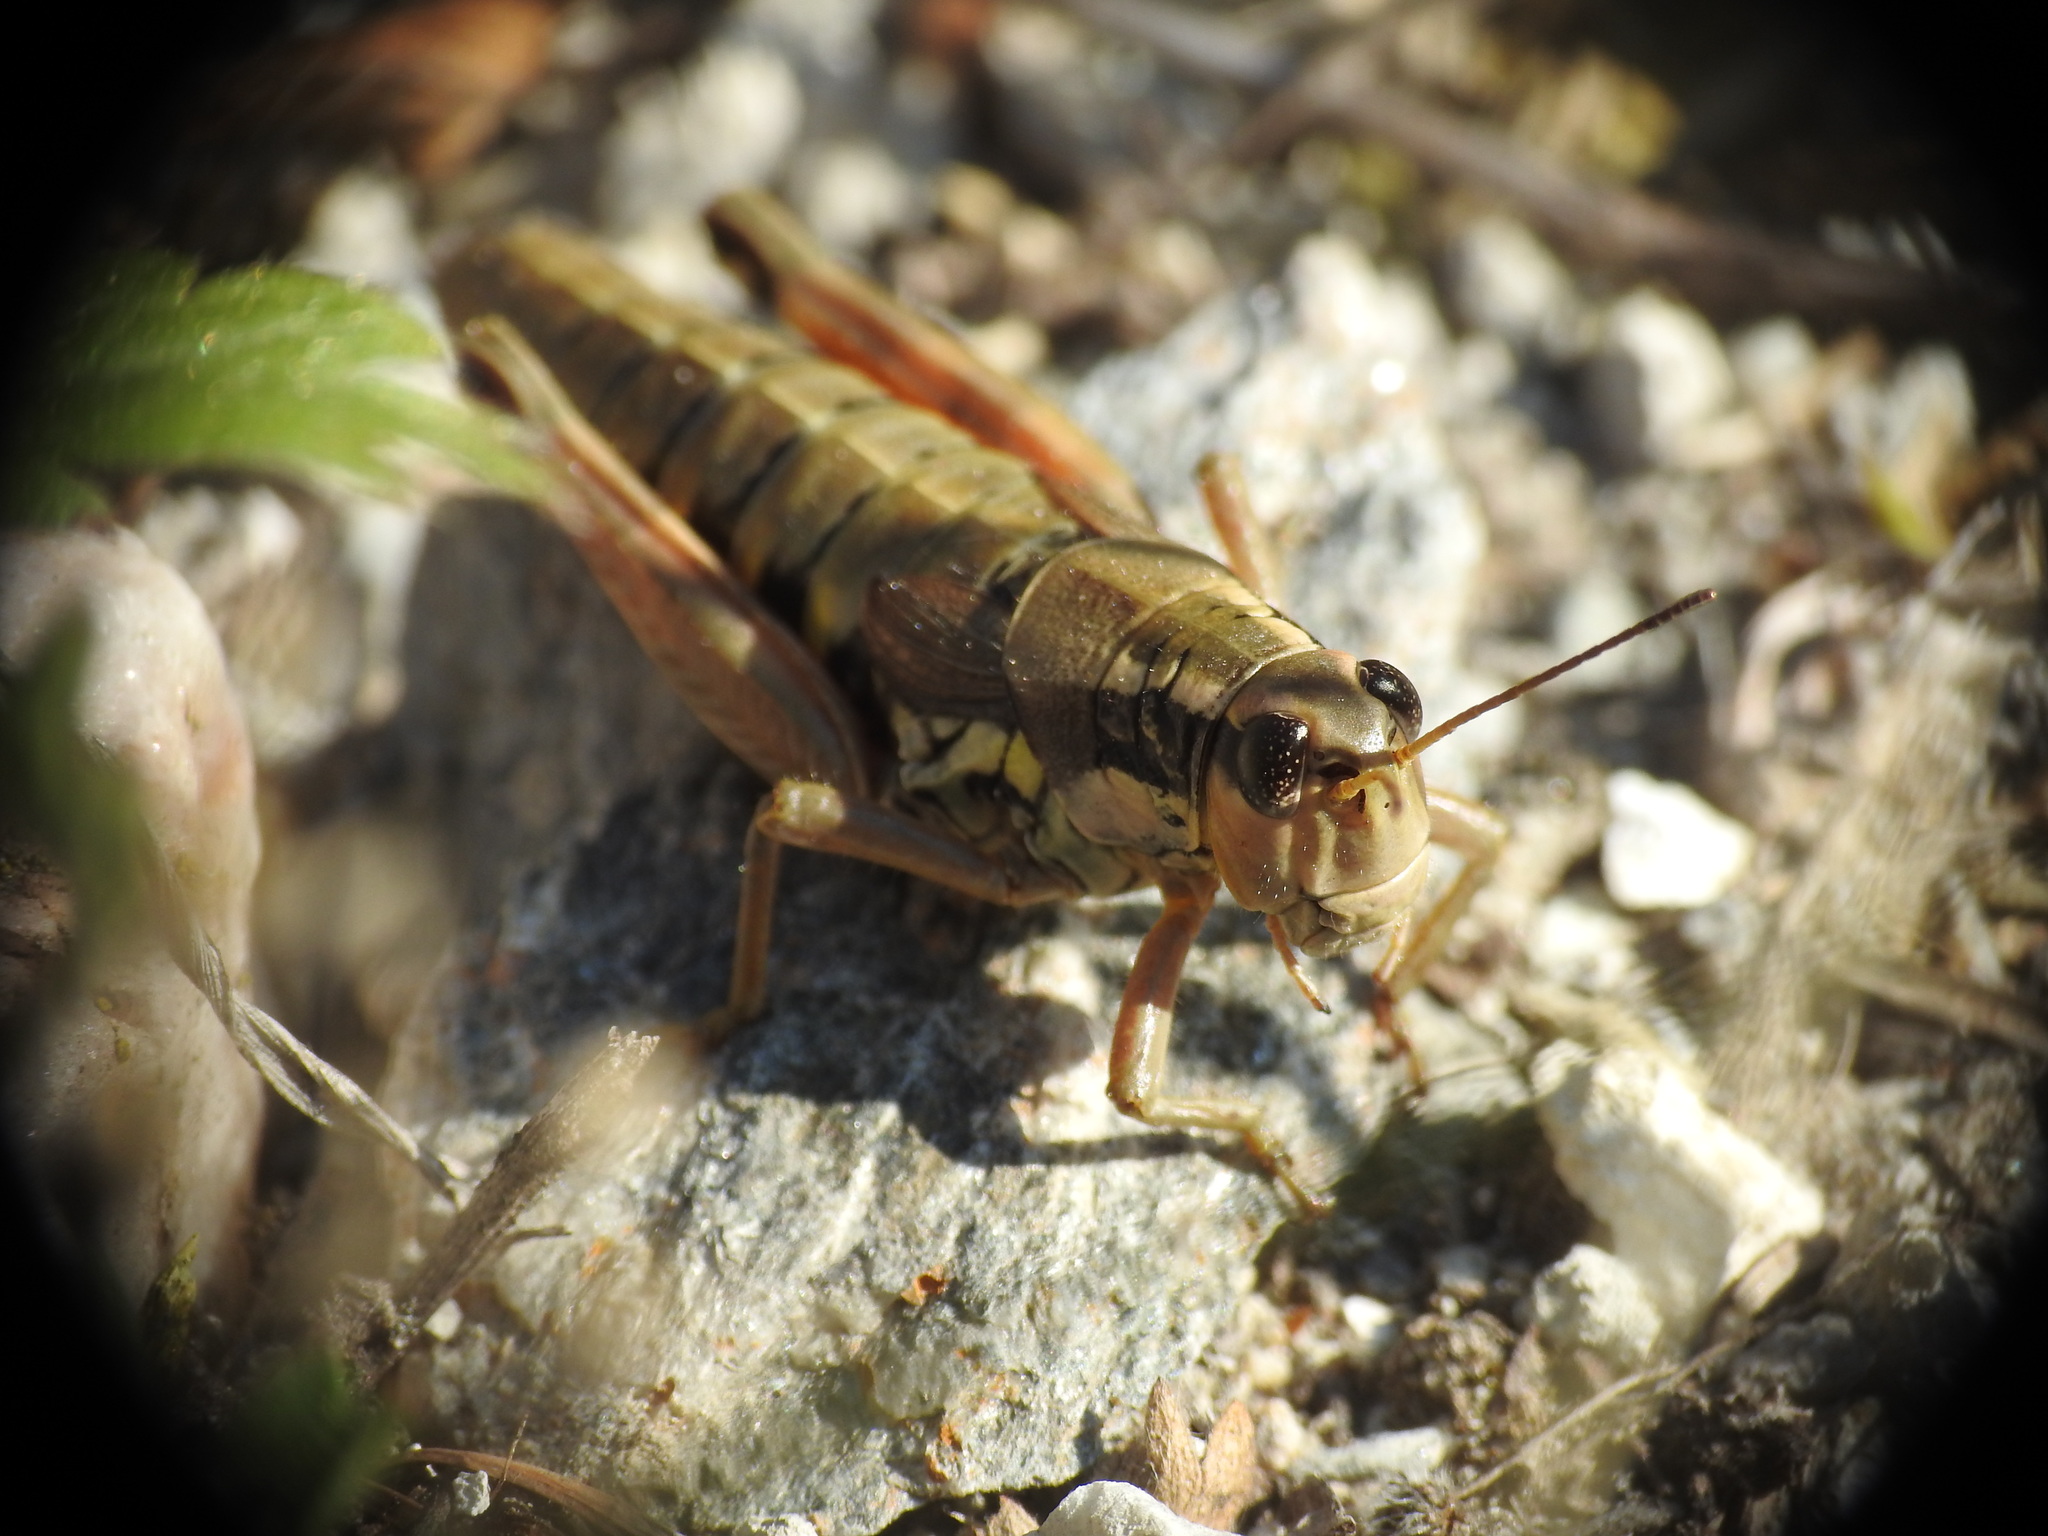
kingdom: Animalia
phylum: Arthropoda
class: Insecta
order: Orthoptera
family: Acrididae
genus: Podisma
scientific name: Podisma pedestris
